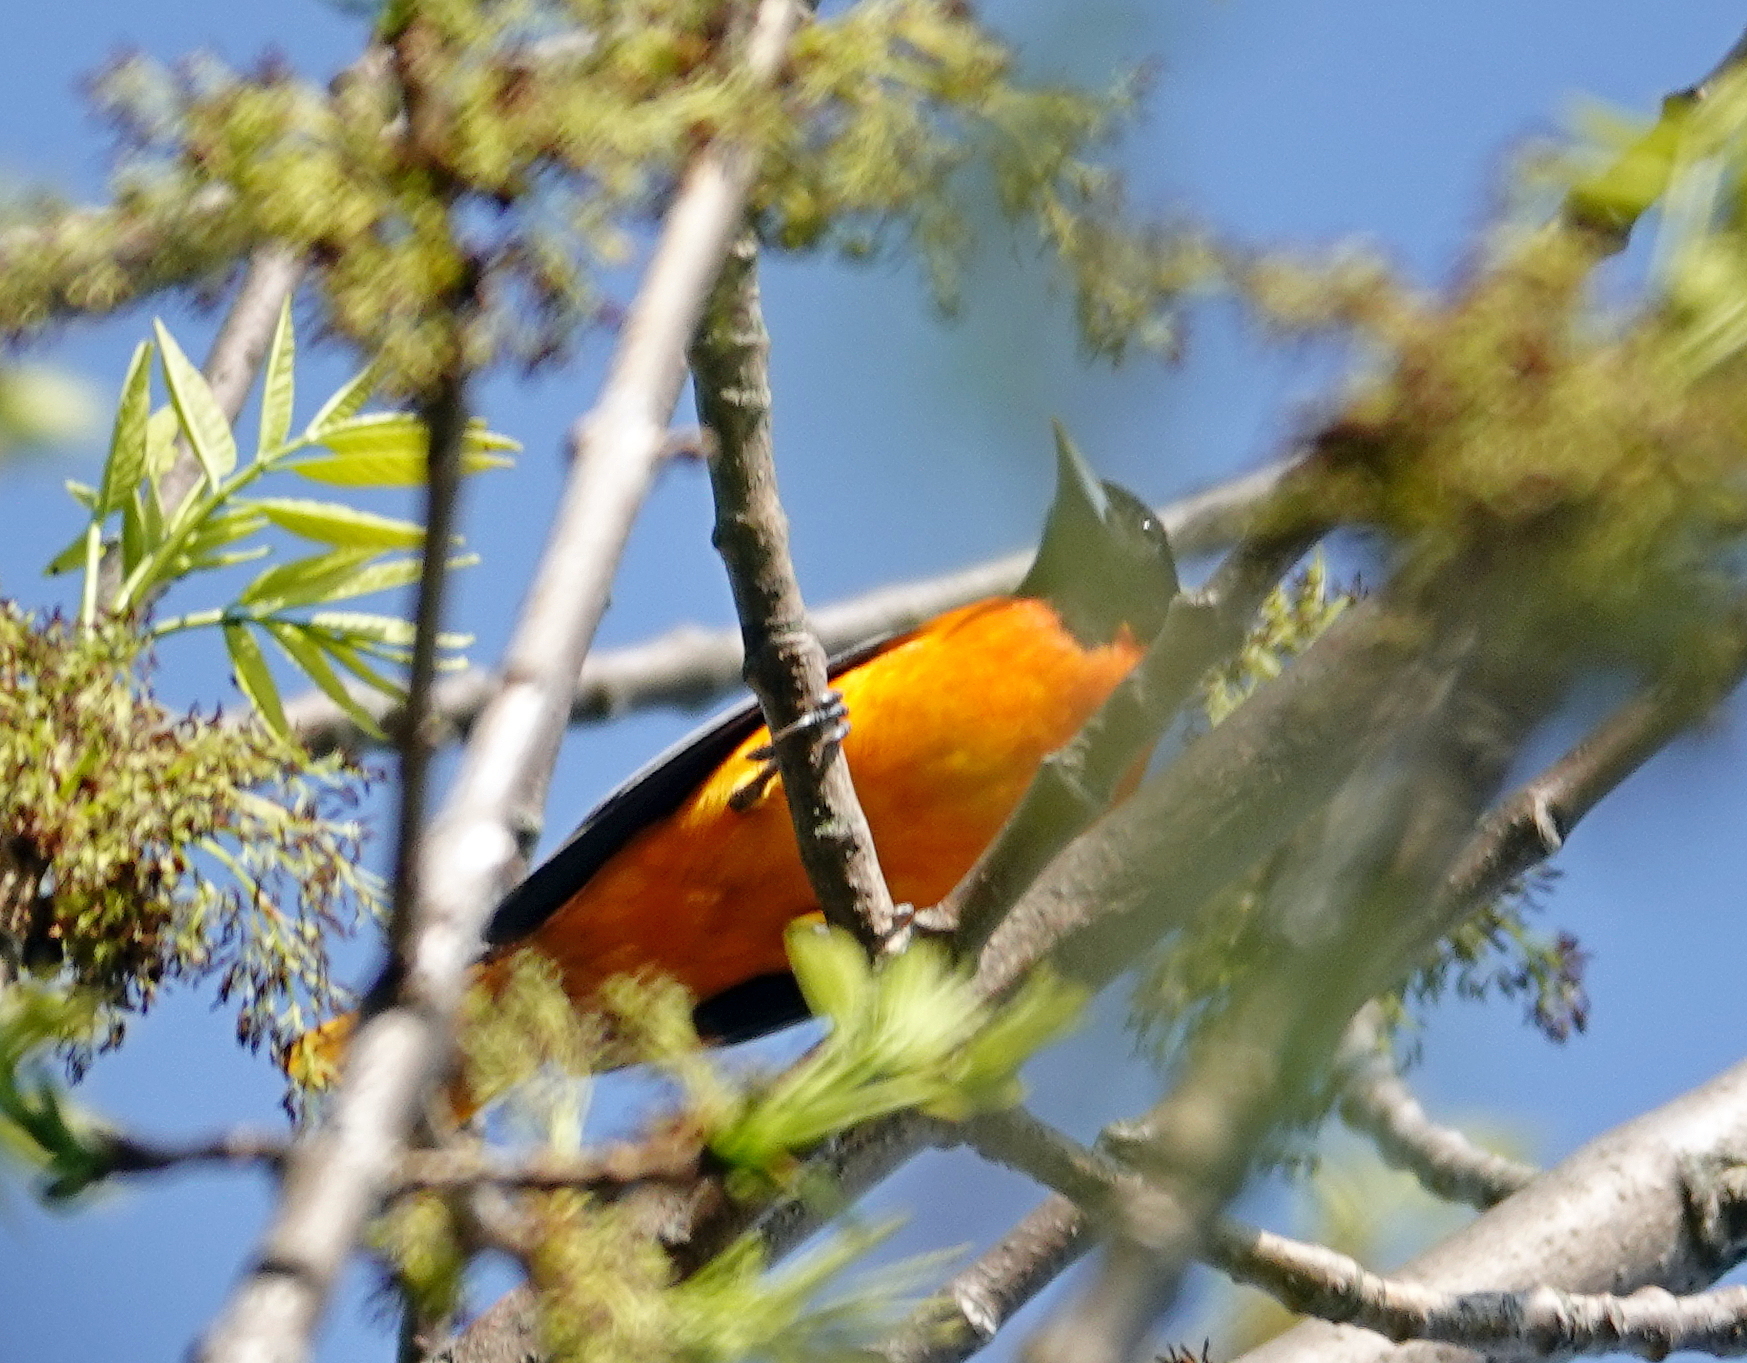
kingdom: Animalia
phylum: Chordata
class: Aves
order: Passeriformes
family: Icteridae
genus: Icterus
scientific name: Icterus galbula
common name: Baltimore oriole
